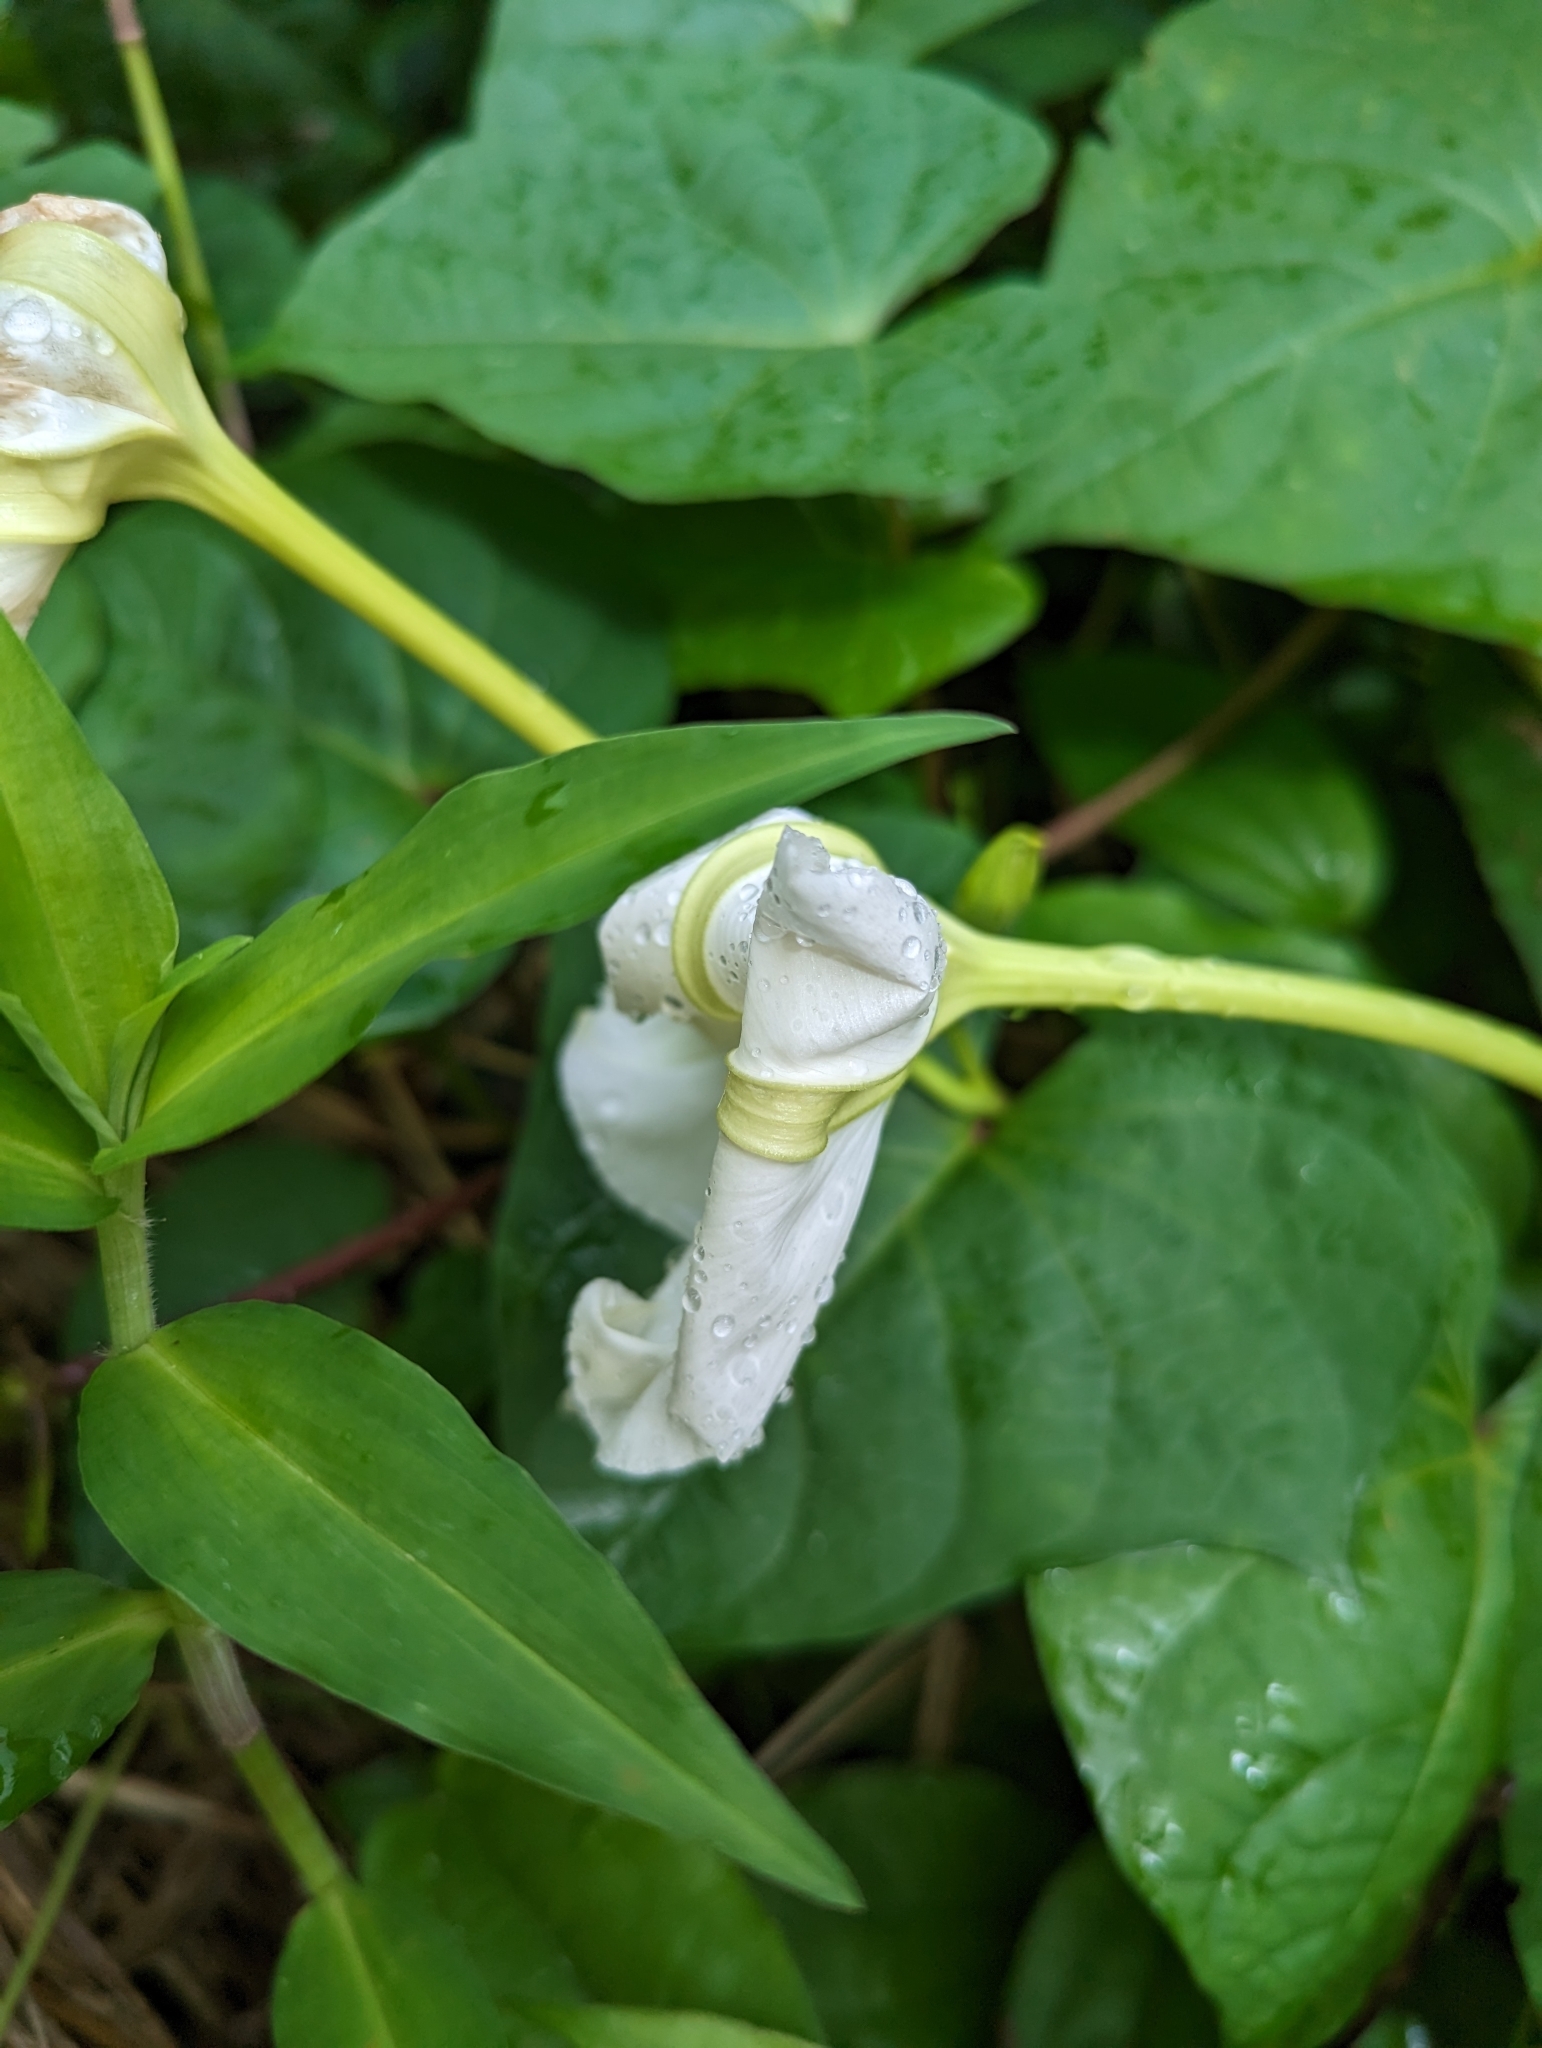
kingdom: Plantae
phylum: Tracheophyta
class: Magnoliopsida
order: Solanales
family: Convolvulaceae
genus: Ipomoea
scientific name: Ipomoea alba
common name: Moonflower
